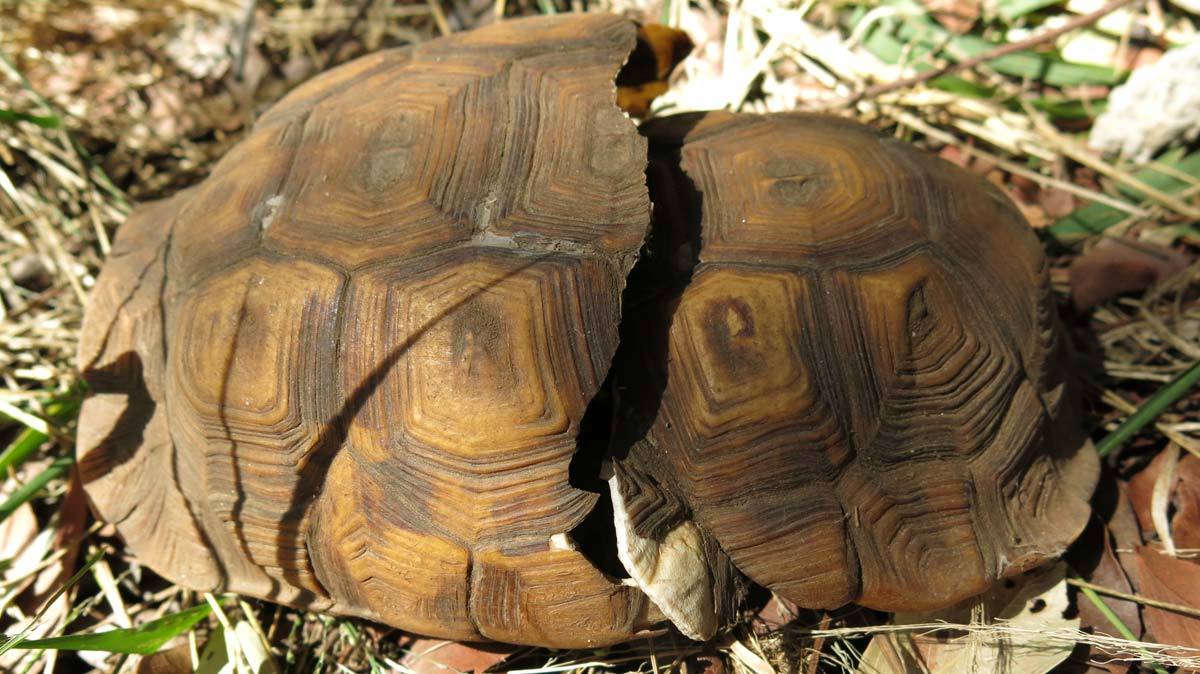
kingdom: Animalia
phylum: Chordata
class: Testudines
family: Testudinidae
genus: Kinixys
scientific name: Kinixys spekii
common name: Speke's hingeback tortoise
